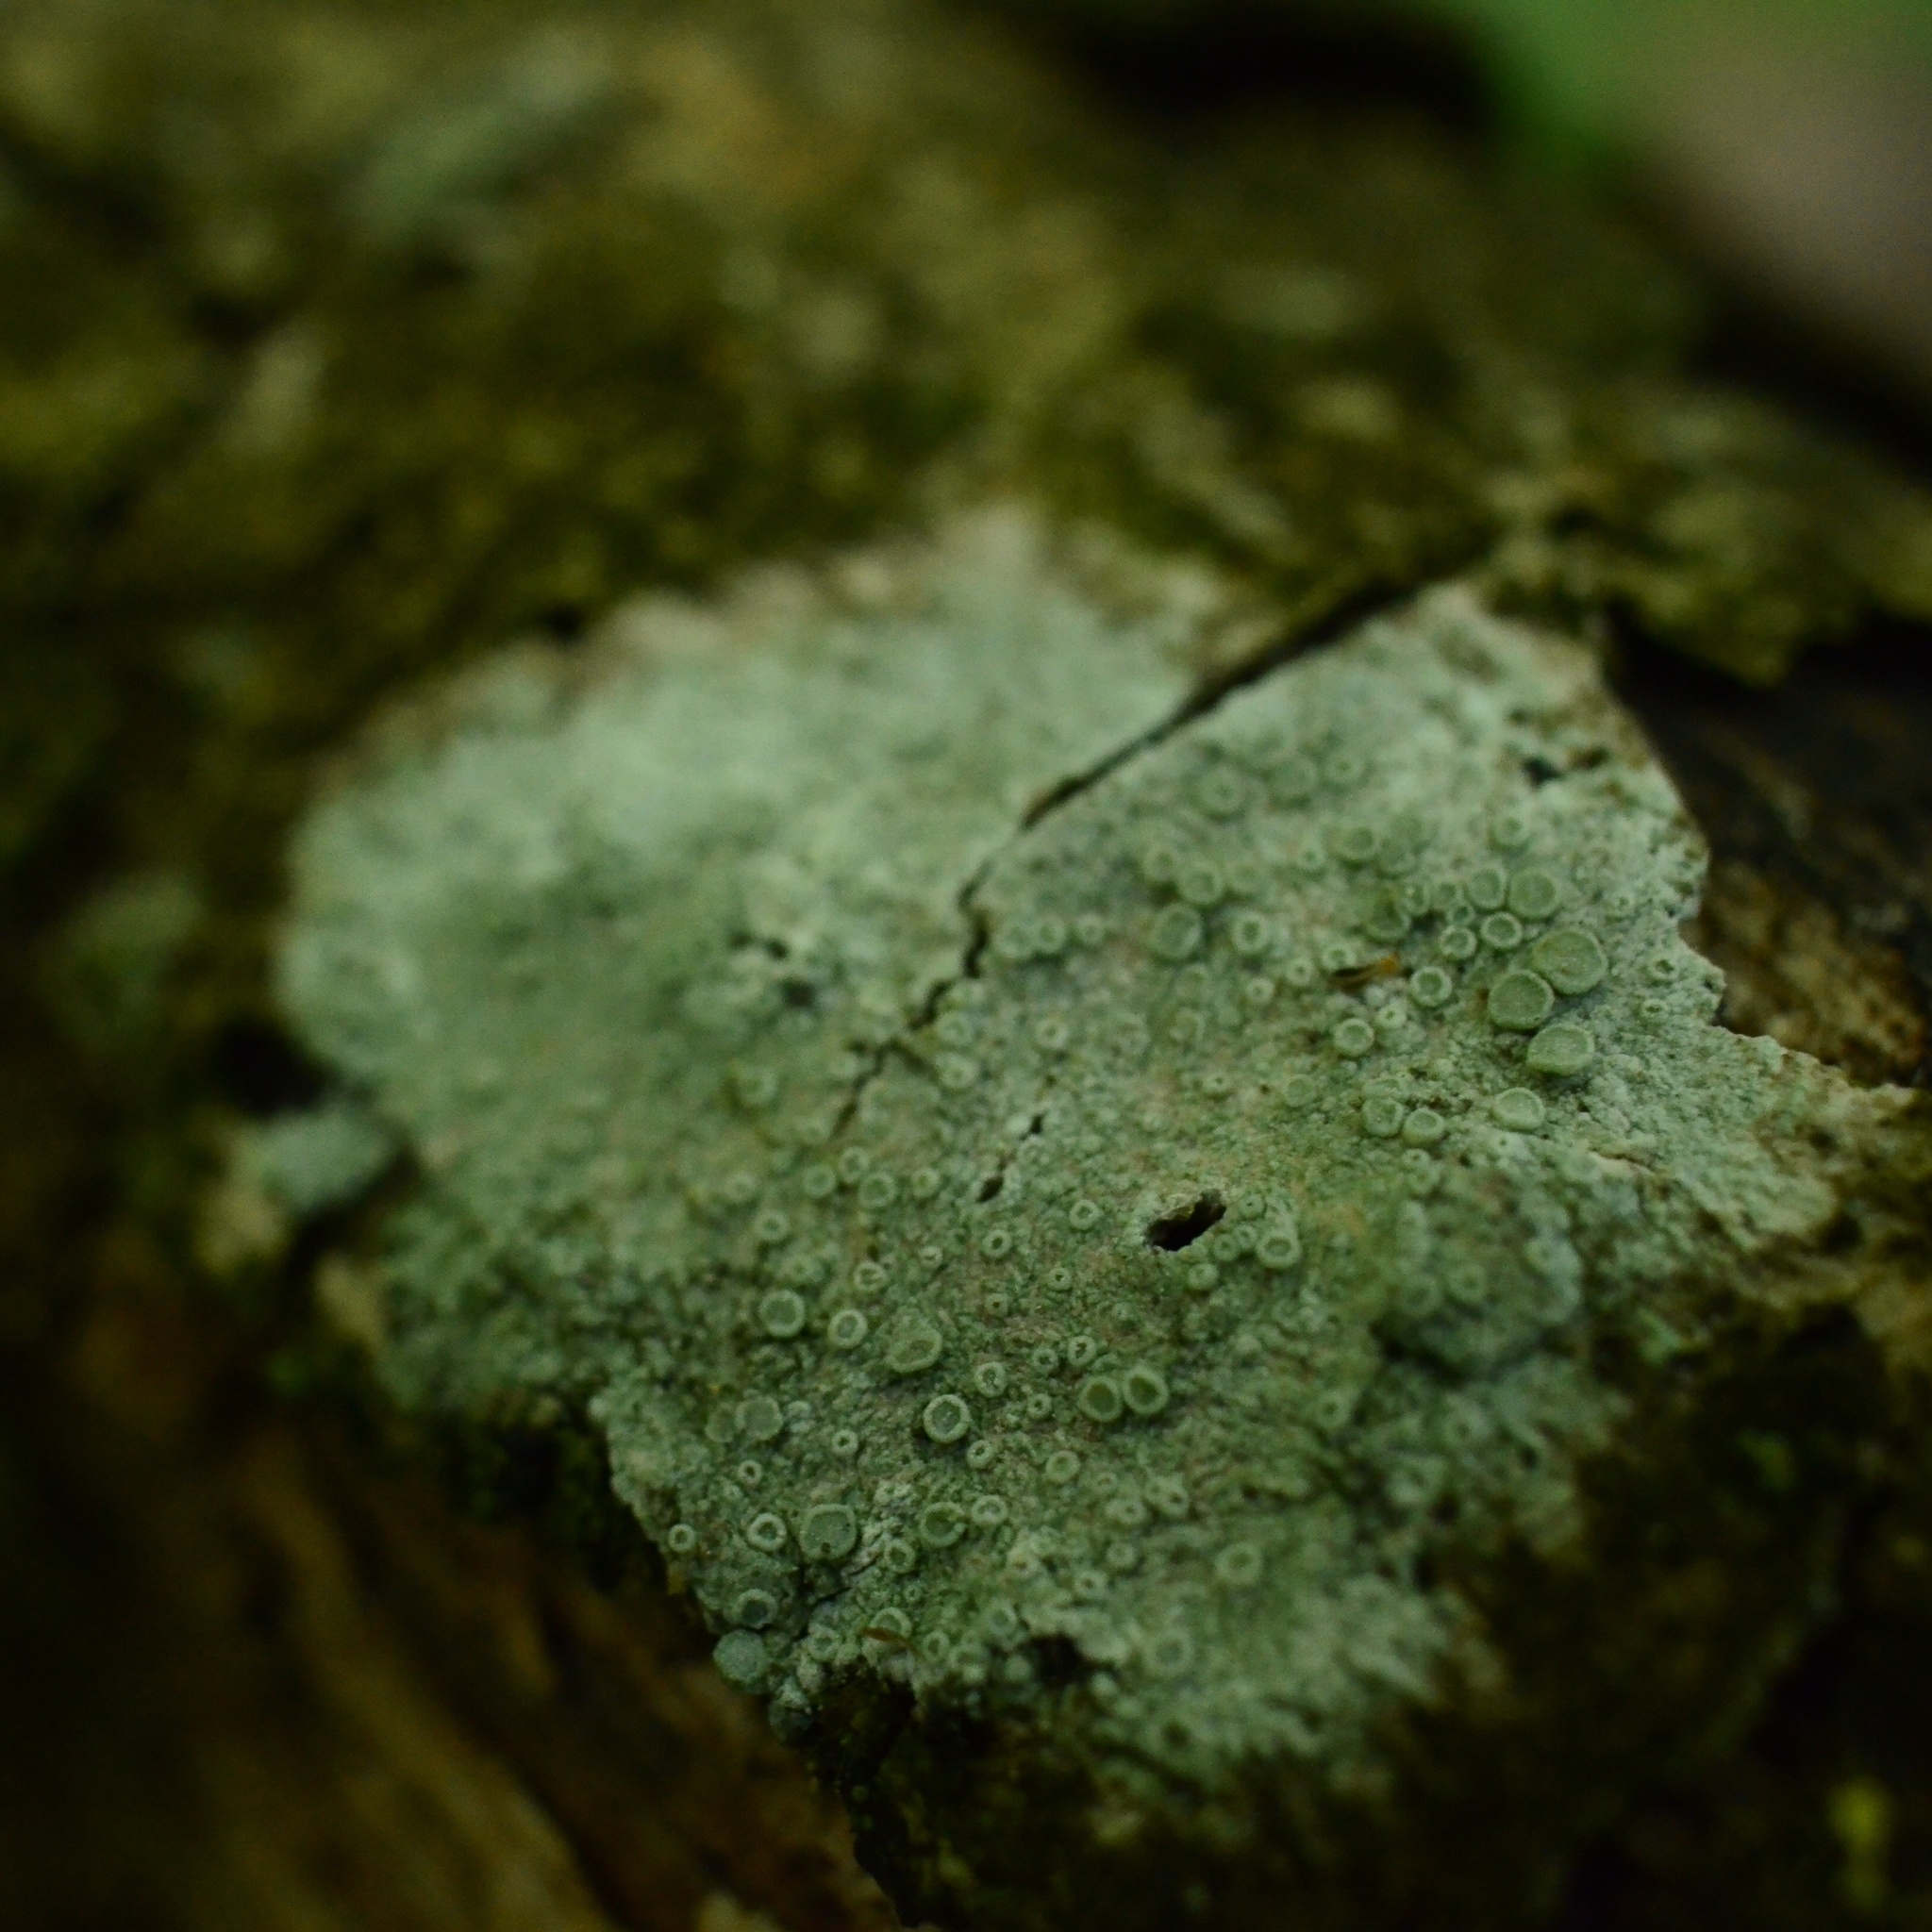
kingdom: Fungi
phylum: Ascomycota
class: Lecanoromycetes
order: Lecanorales
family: Lecanoraceae
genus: Glaucomaria
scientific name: Glaucomaria carpinea
